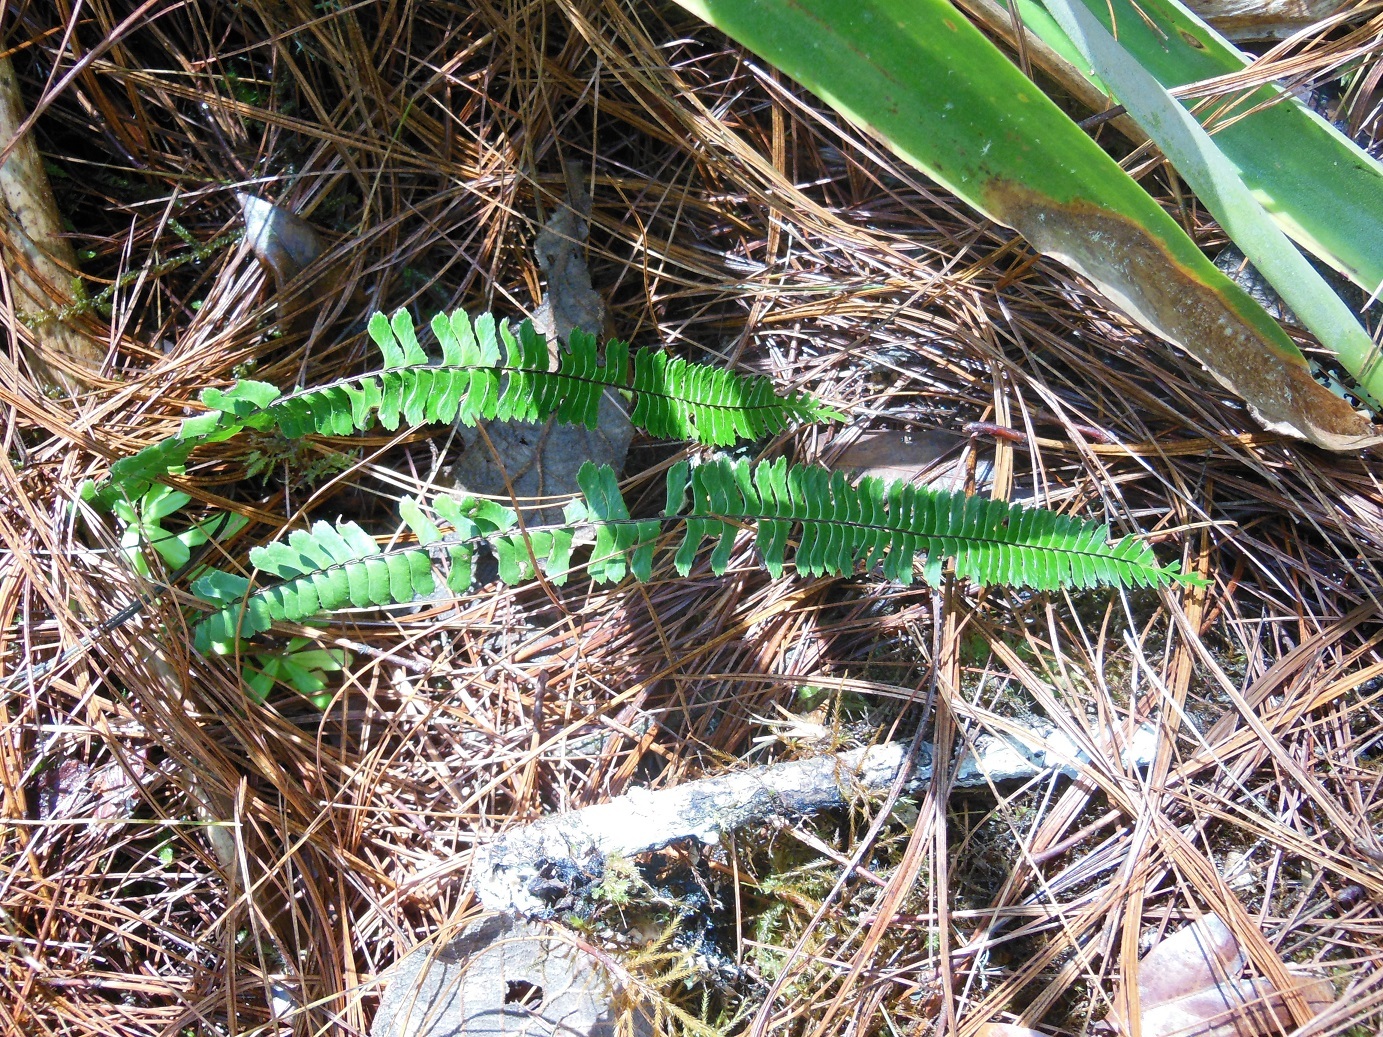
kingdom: Plantae
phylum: Tracheophyta
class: Polypodiopsida
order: Polypodiales
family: Aspleniaceae
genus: Asplenium
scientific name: Asplenium formosum
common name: Showy spleenwort
